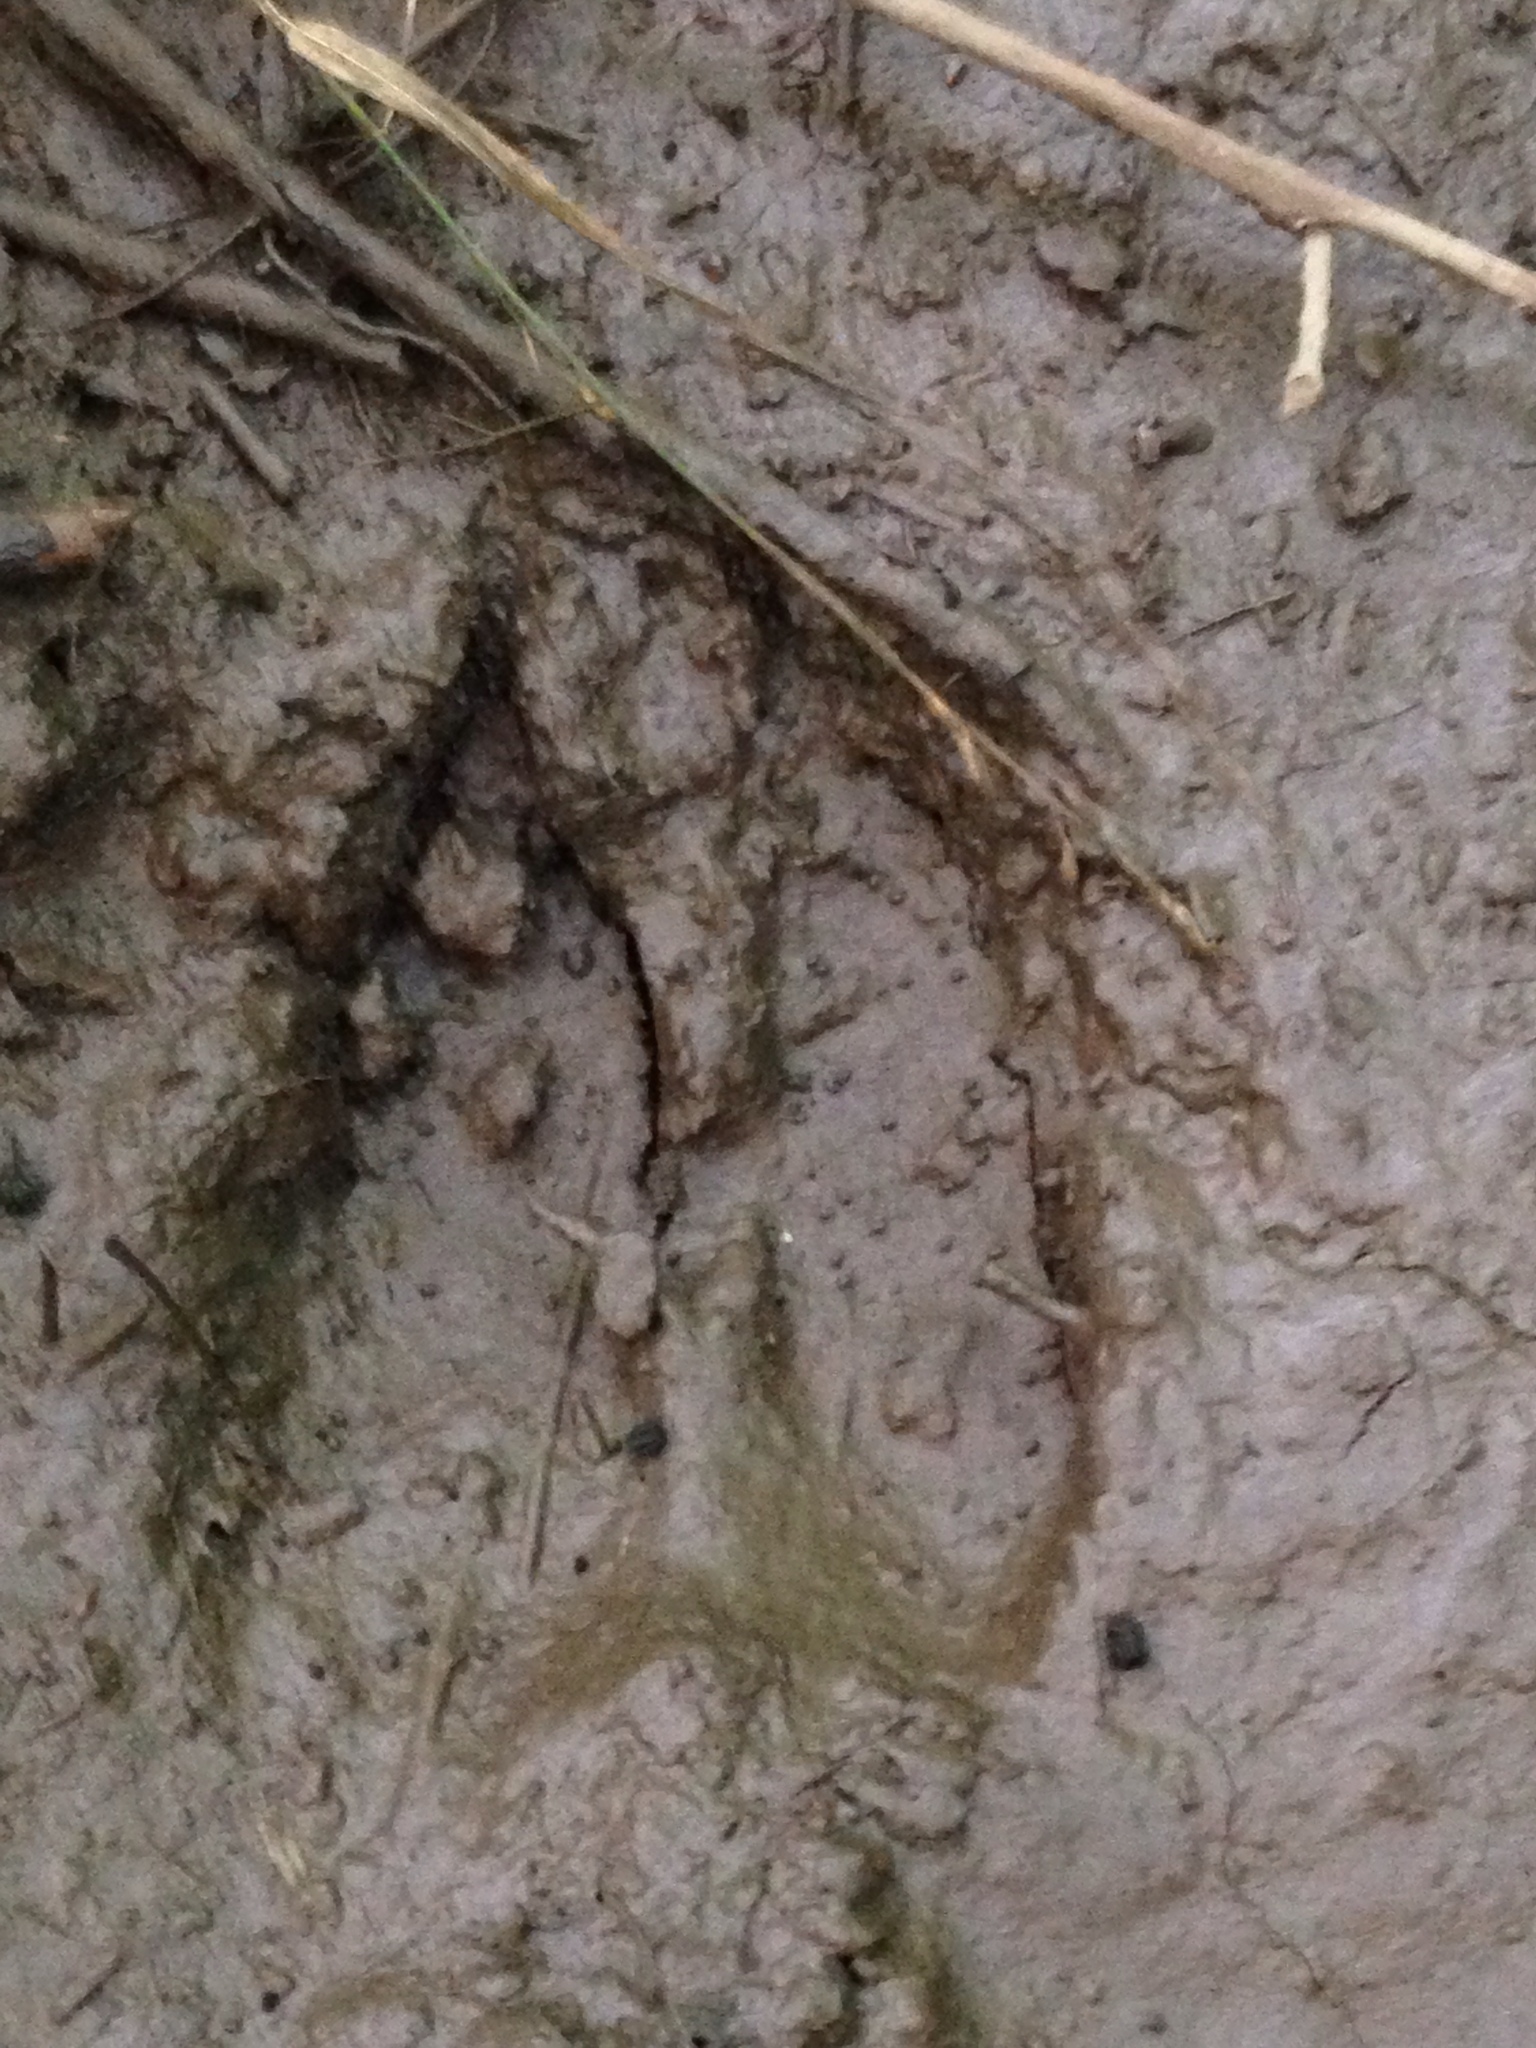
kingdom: Animalia
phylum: Chordata
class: Mammalia
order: Artiodactyla
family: Cervidae
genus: Odocoileus
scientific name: Odocoileus virginianus
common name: White-tailed deer
